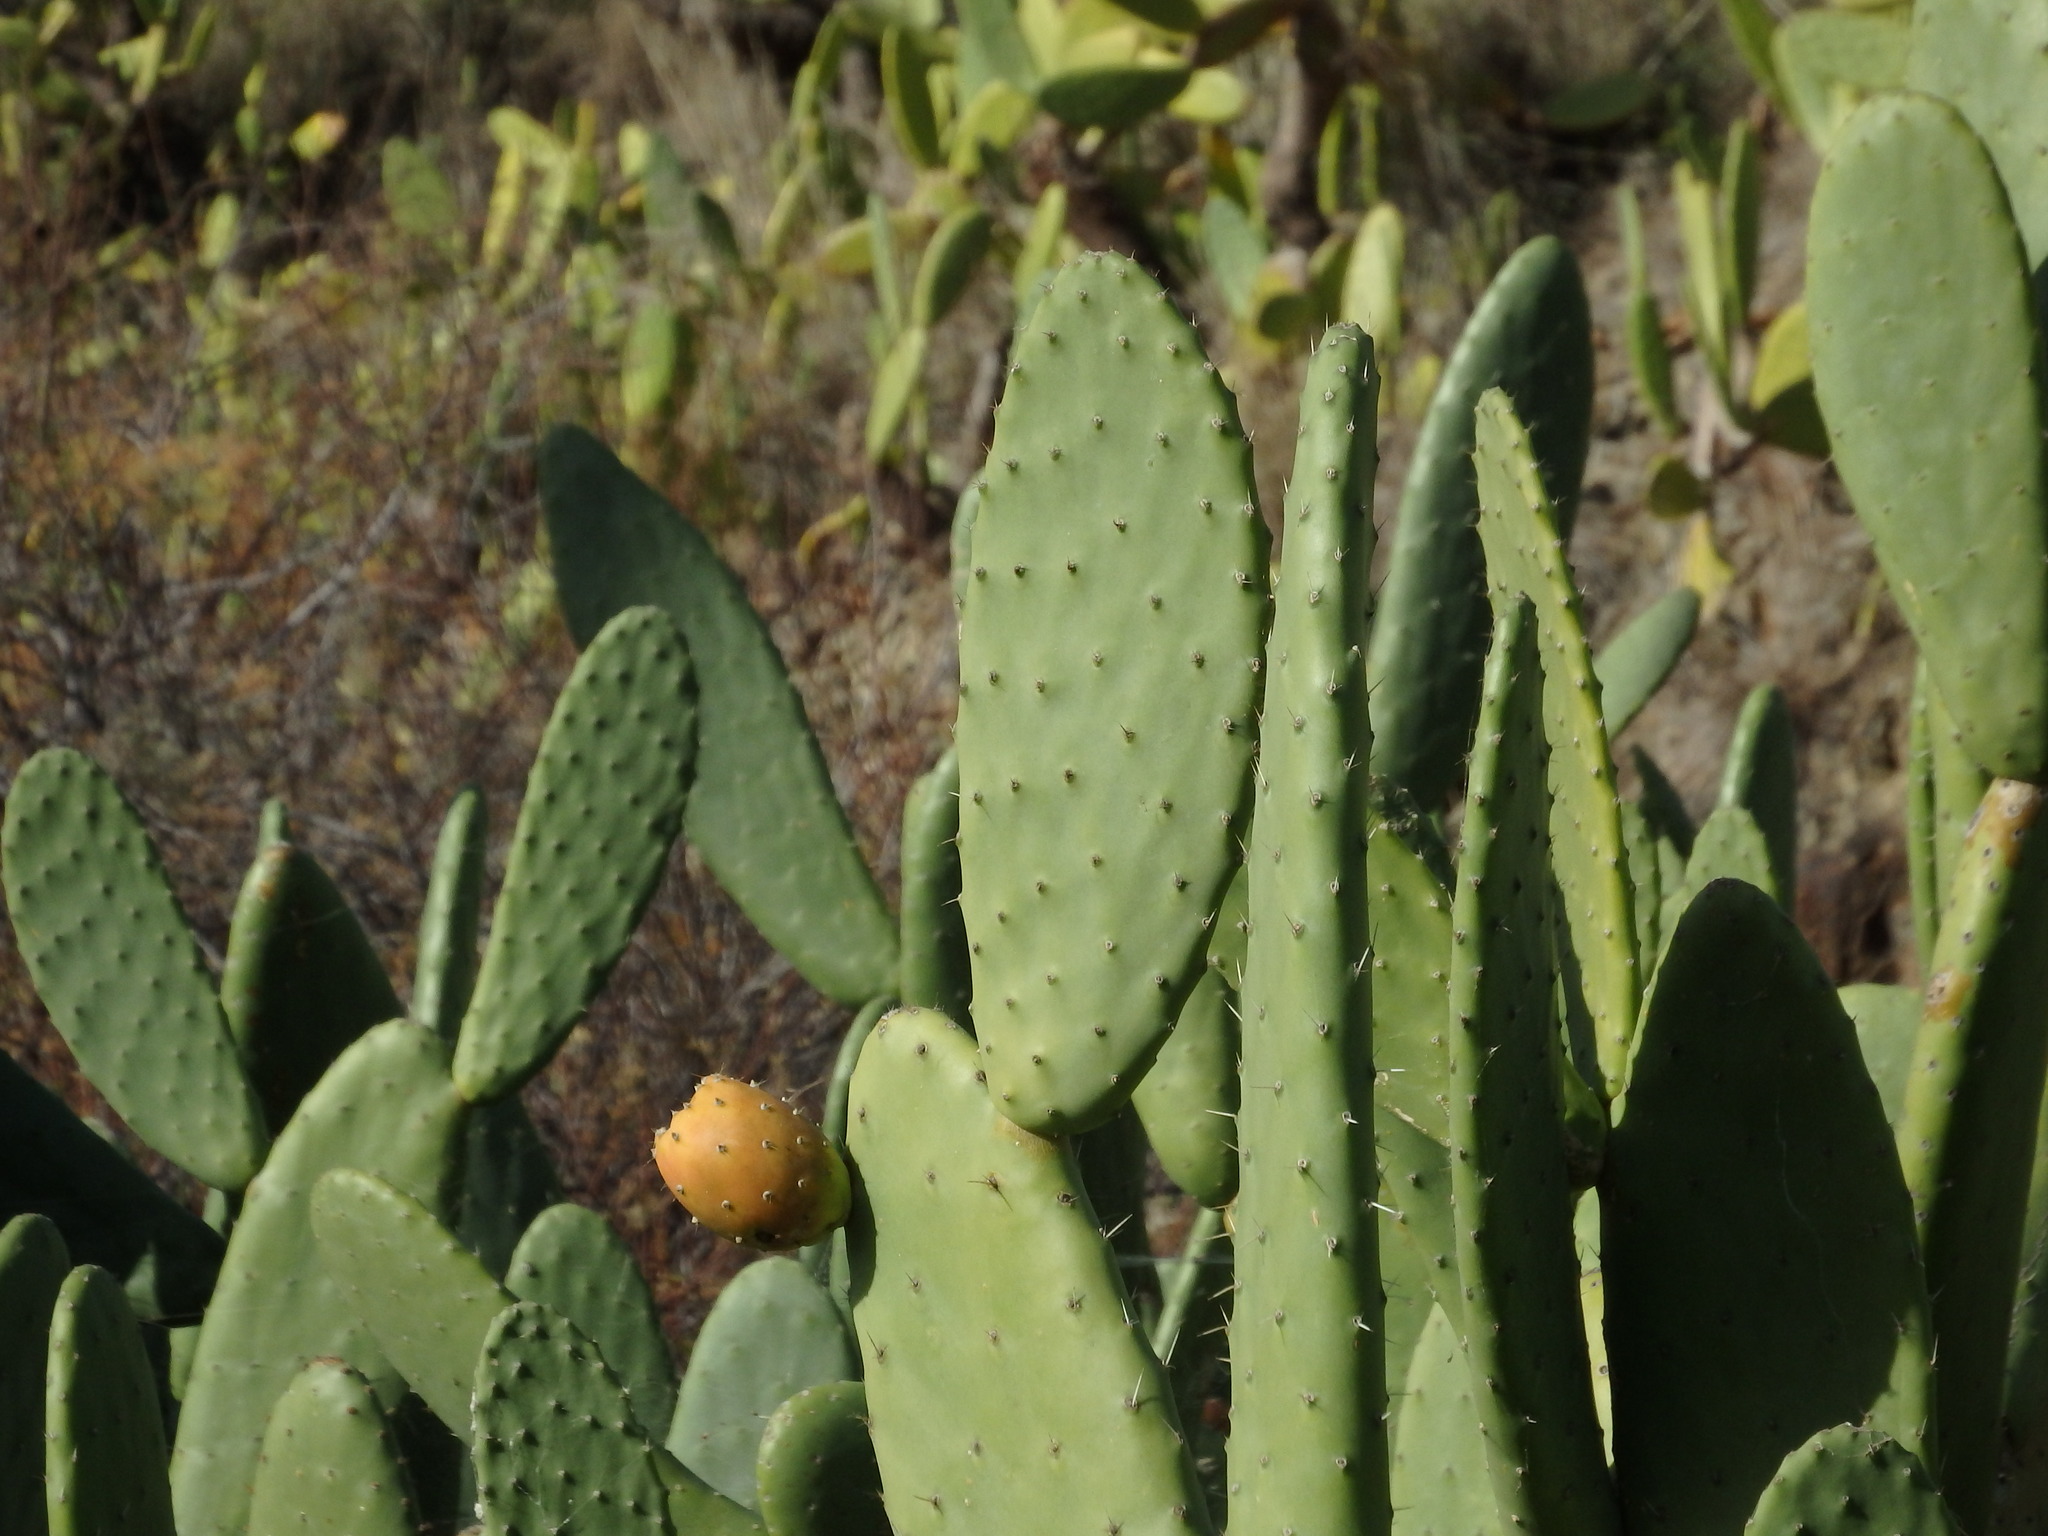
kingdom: Plantae
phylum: Tracheophyta
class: Magnoliopsida
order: Caryophyllales
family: Cactaceae
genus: Opuntia
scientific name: Opuntia ficus-indica
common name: Barbary fig
